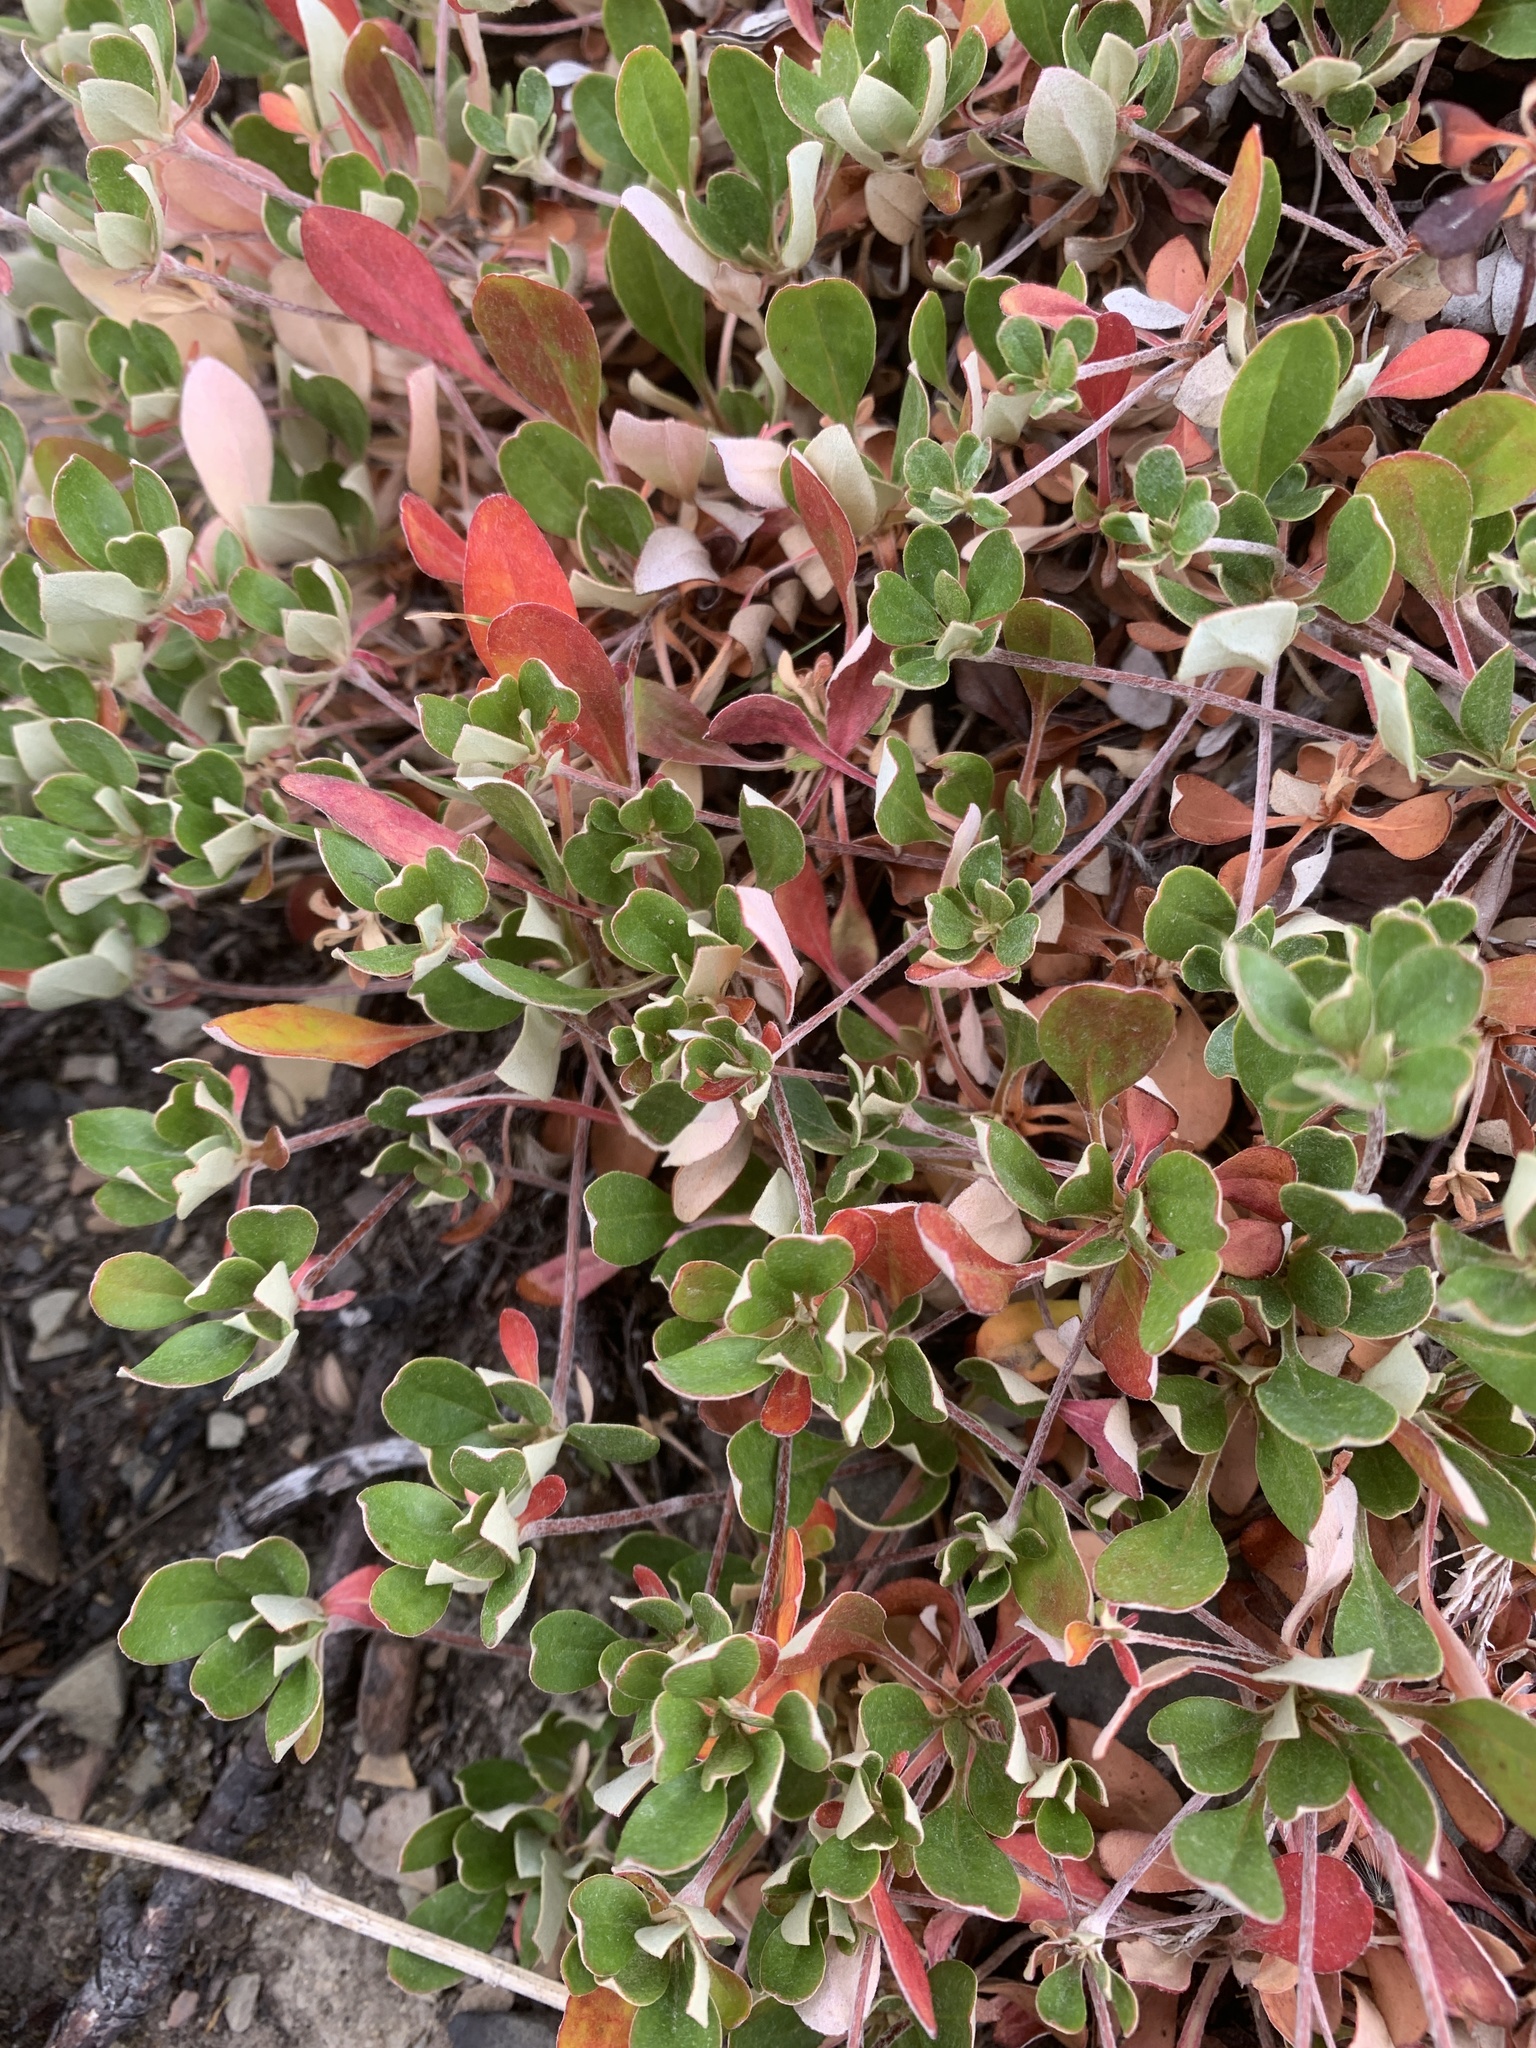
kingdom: Plantae
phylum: Tracheophyta
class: Magnoliopsida
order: Caryophyllales
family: Polygonaceae
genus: Eriogonum
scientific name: Eriogonum umbellatum
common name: Sulfur-buckwheat
